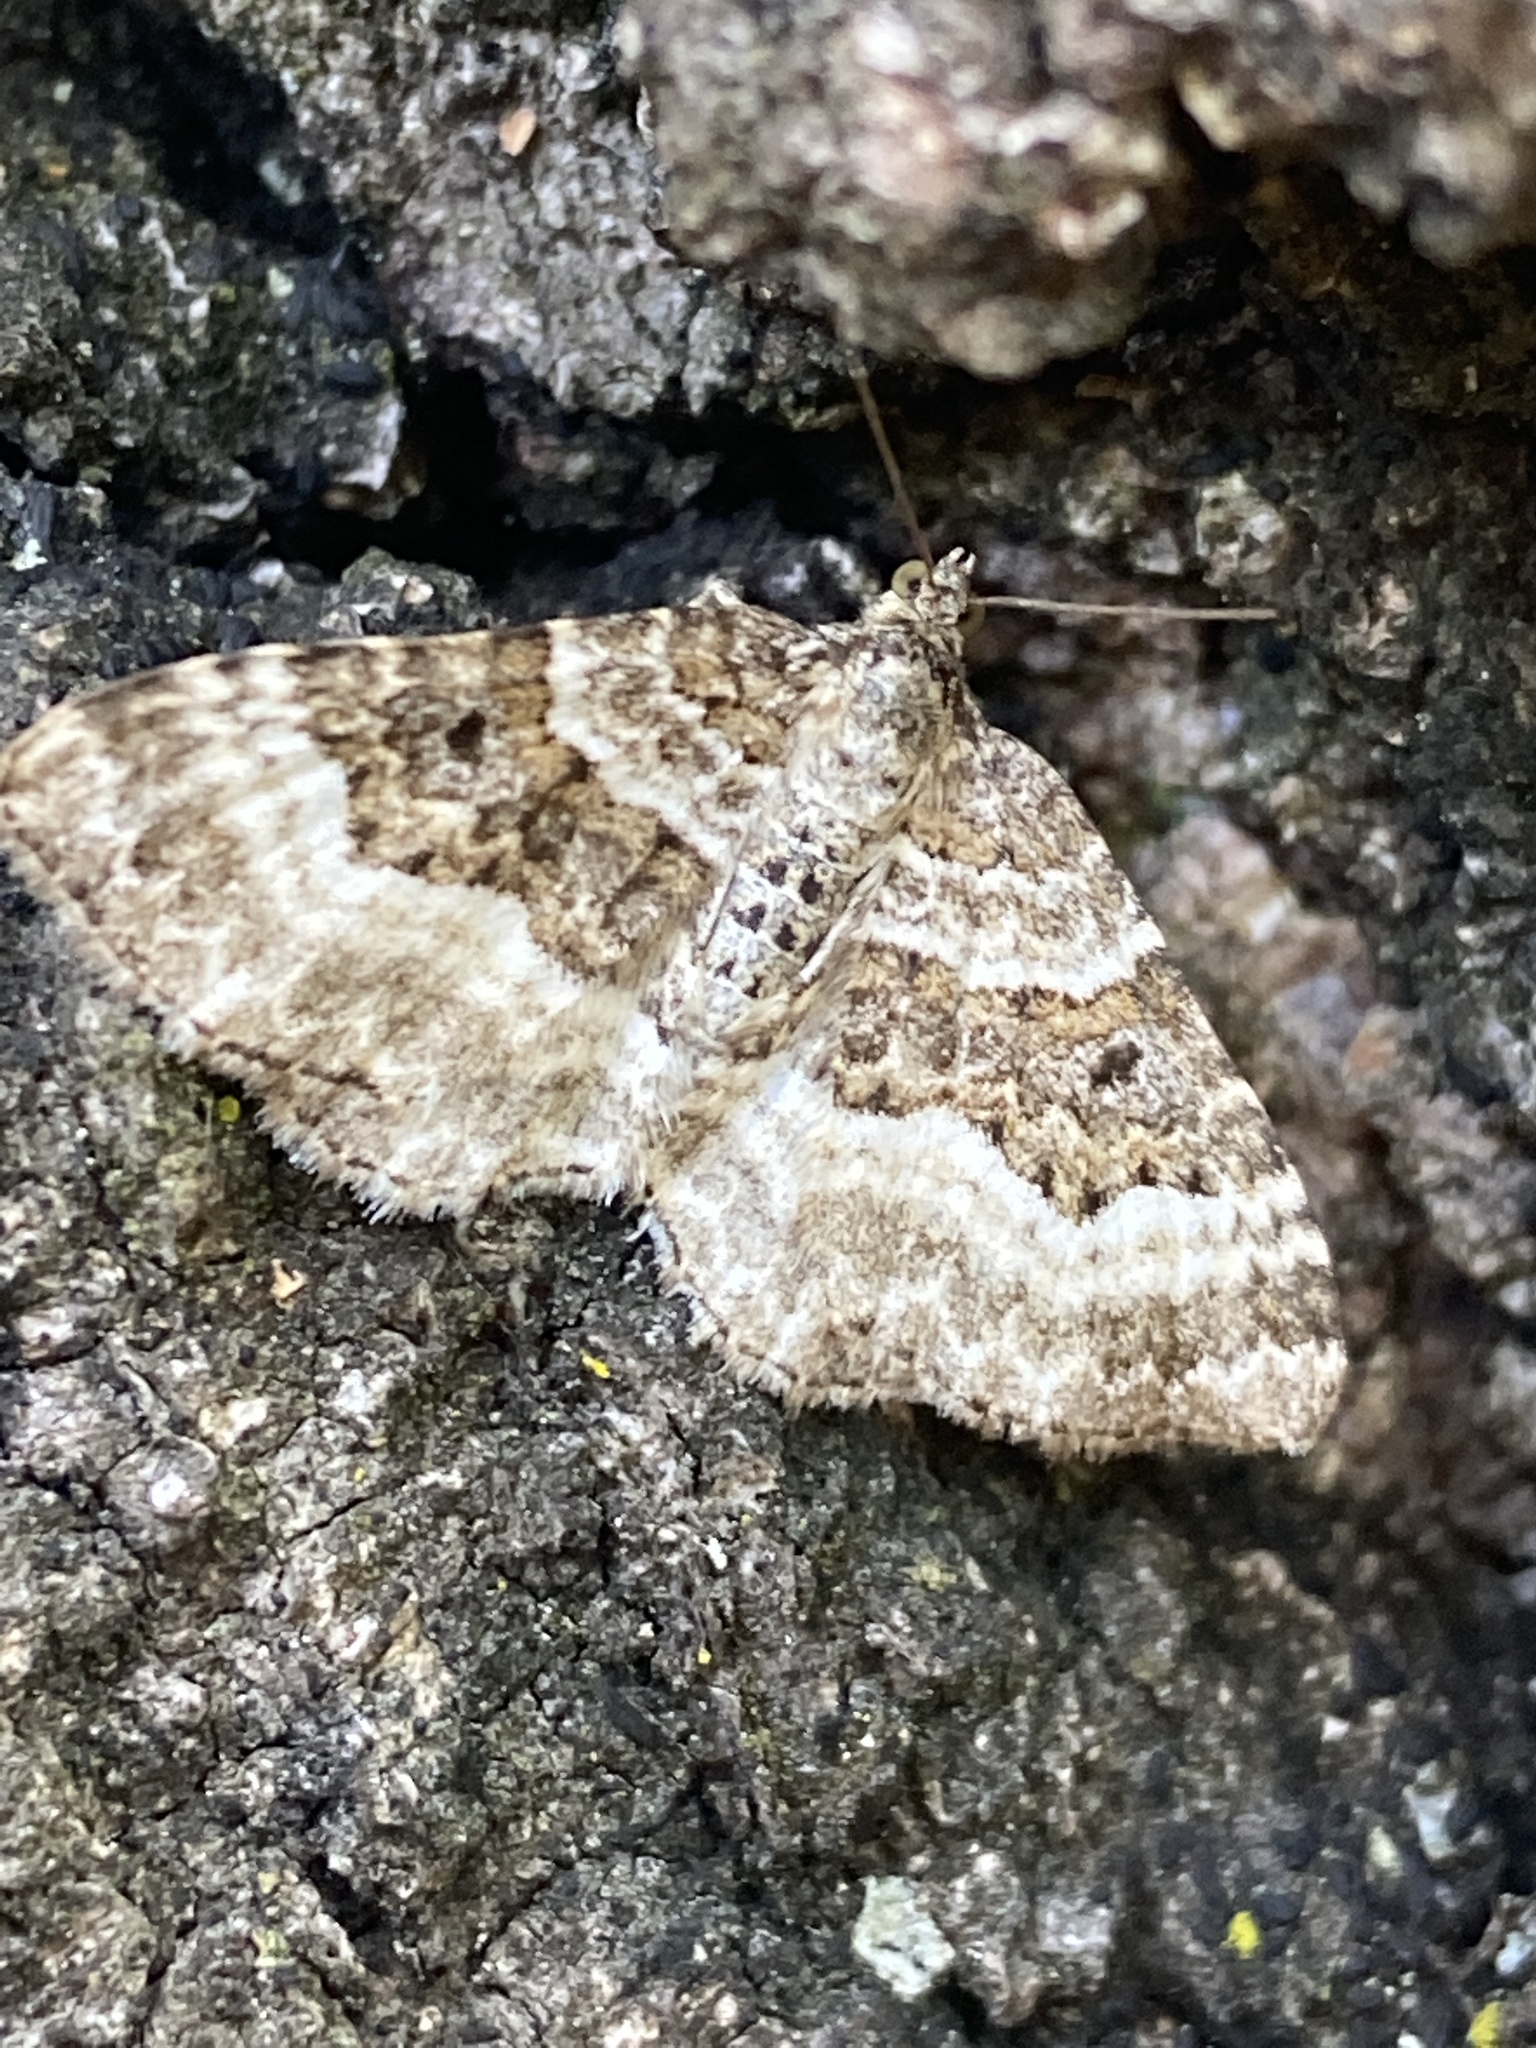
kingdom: Animalia
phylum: Arthropoda
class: Insecta
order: Lepidoptera
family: Geometridae
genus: Epirrhoe
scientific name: Epirrhoe alternata
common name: Common carpet
